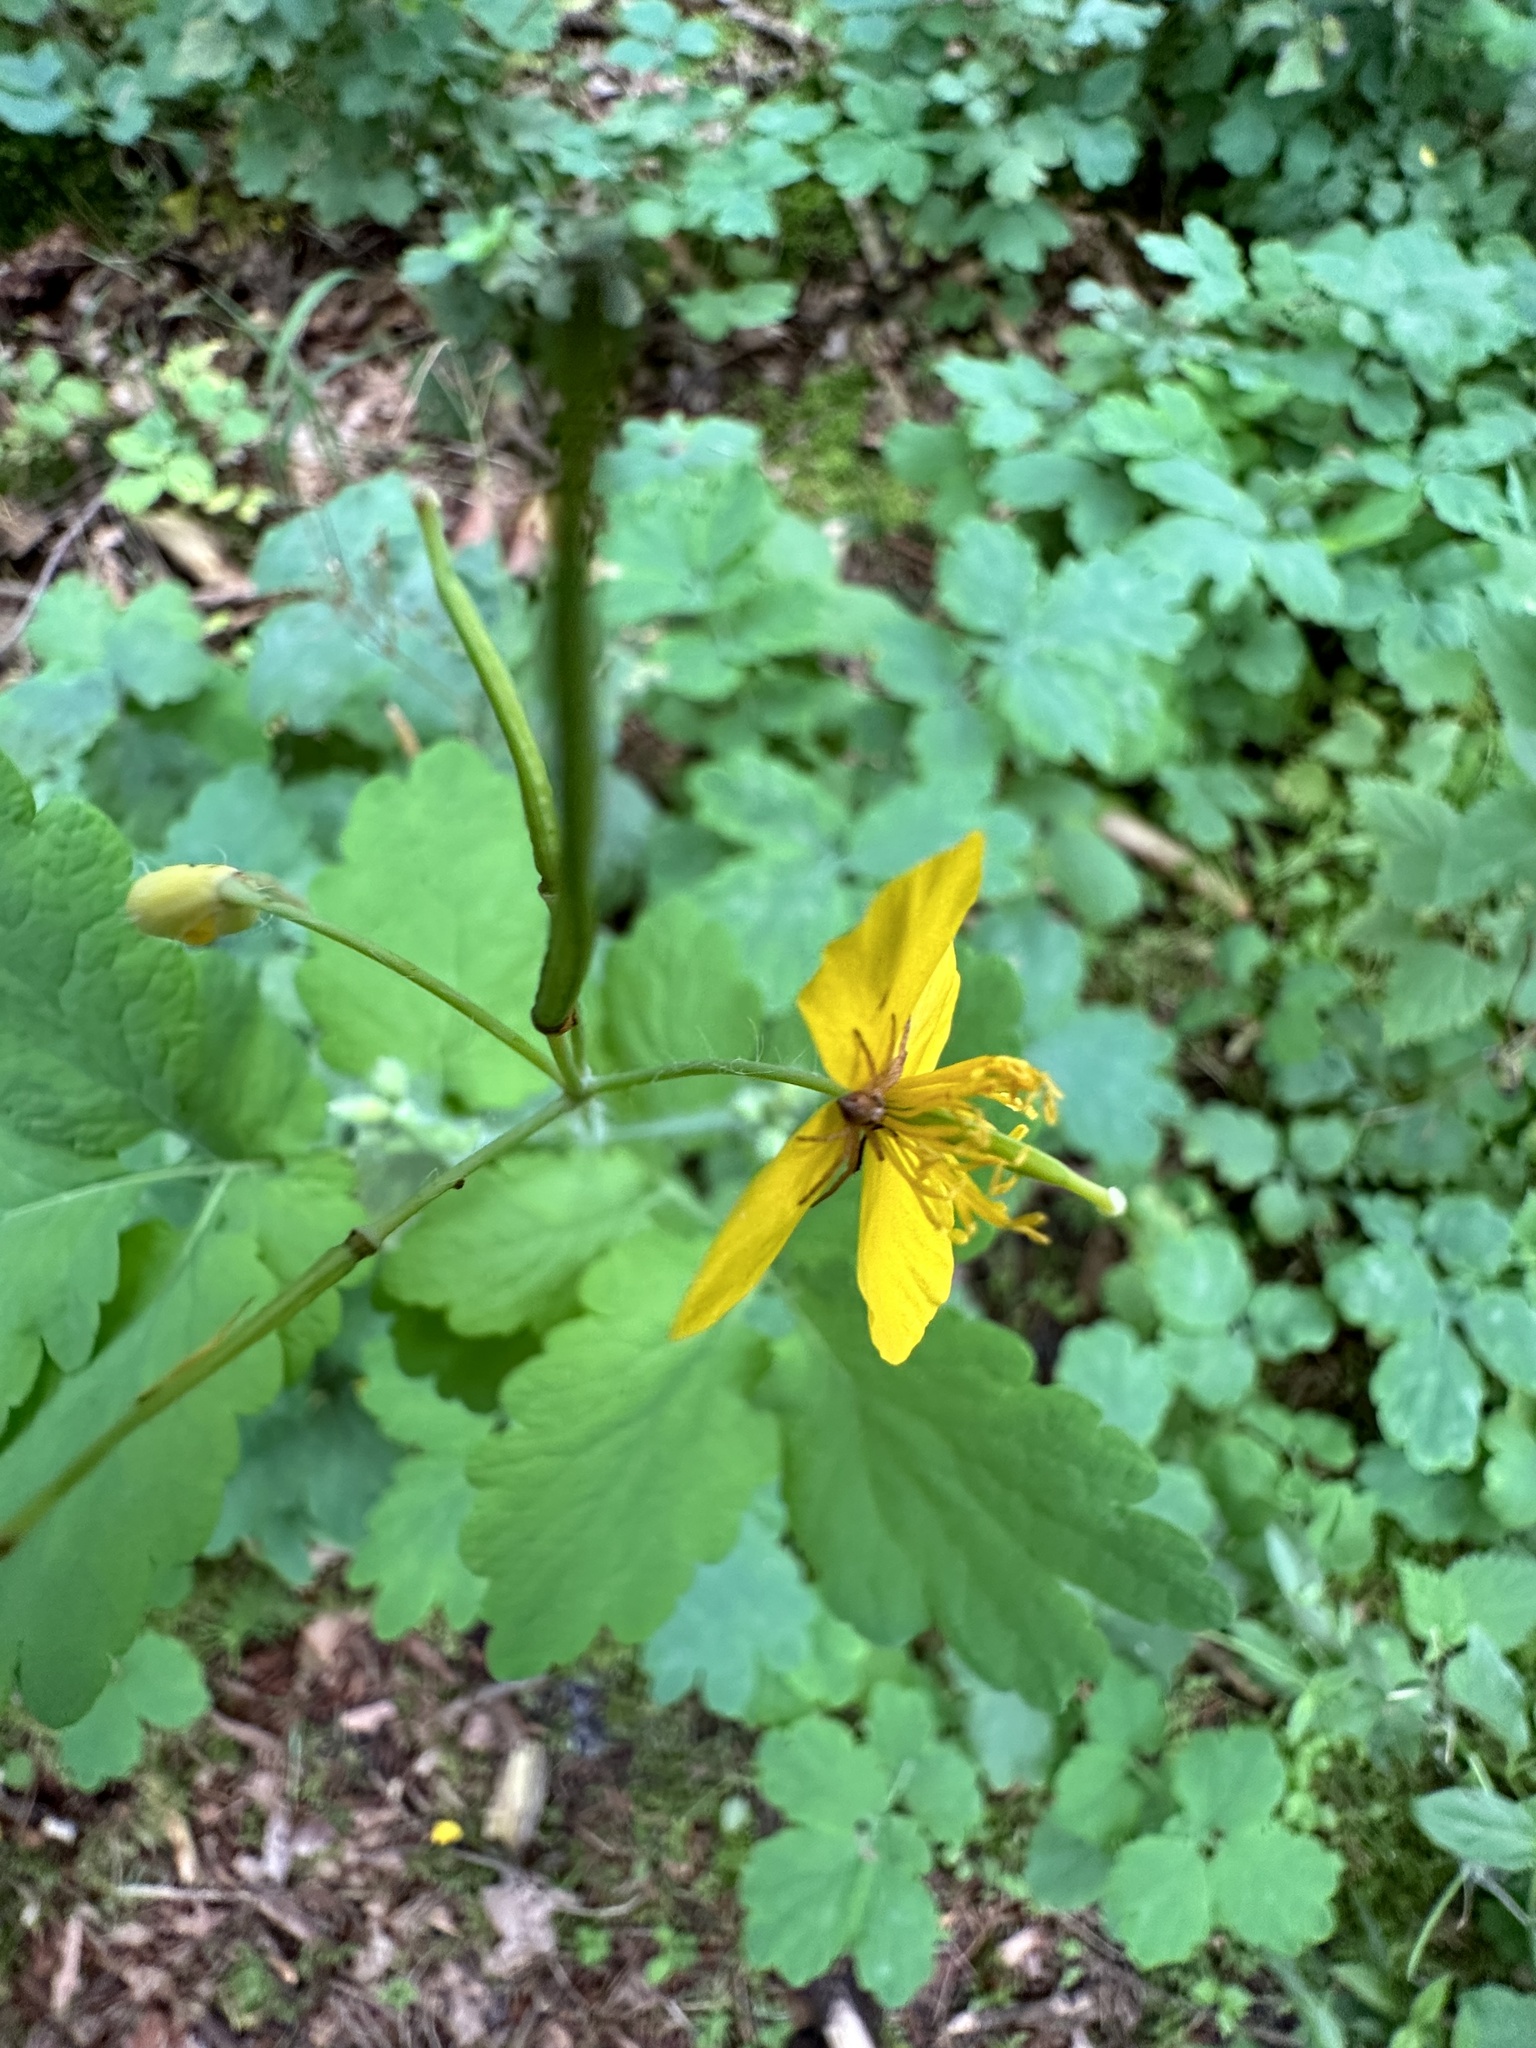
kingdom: Plantae
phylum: Tracheophyta
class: Magnoliopsida
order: Ranunculales
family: Papaveraceae
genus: Chelidonium
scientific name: Chelidonium majus
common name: Greater celandine
